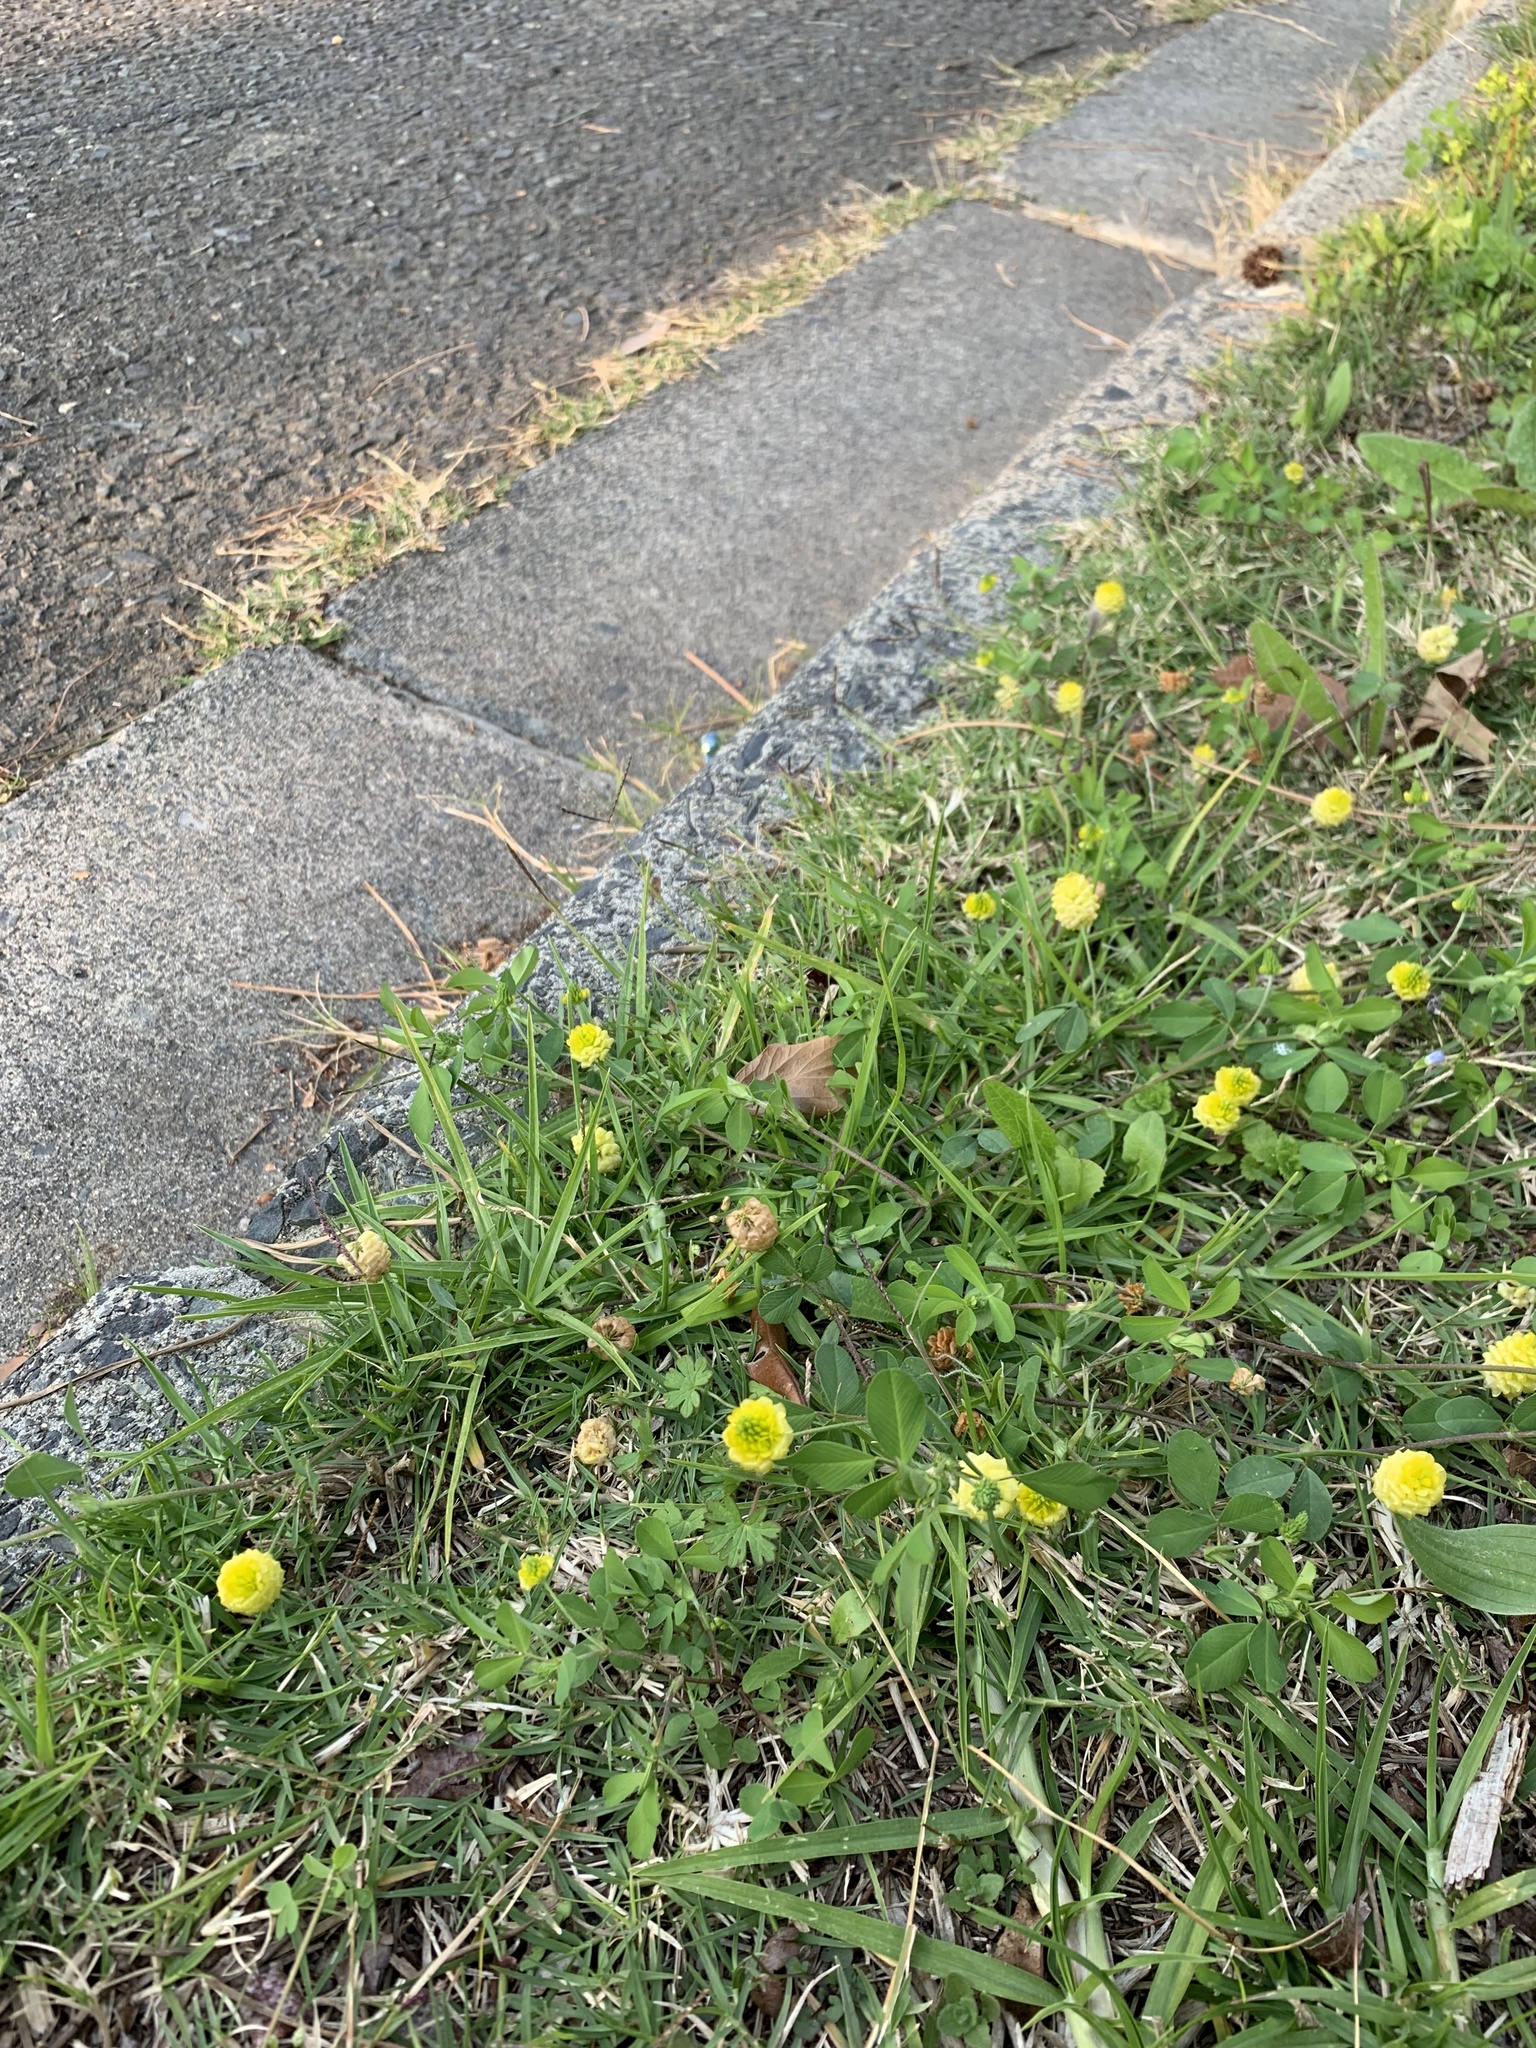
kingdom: Plantae
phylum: Tracheophyta
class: Magnoliopsida
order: Fabales
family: Fabaceae
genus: Trifolium
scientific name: Trifolium campestre
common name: Field clover
